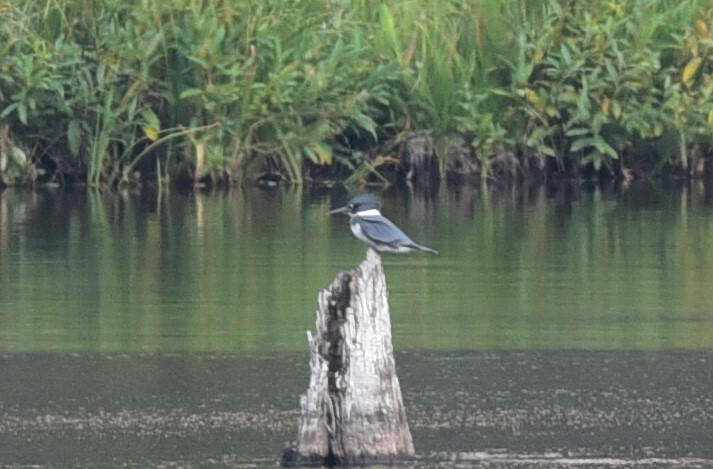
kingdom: Animalia
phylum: Chordata
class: Aves
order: Coraciiformes
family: Alcedinidae
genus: Megaceryle
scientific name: Megaceryle alcyon
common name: Belted kingfisher
